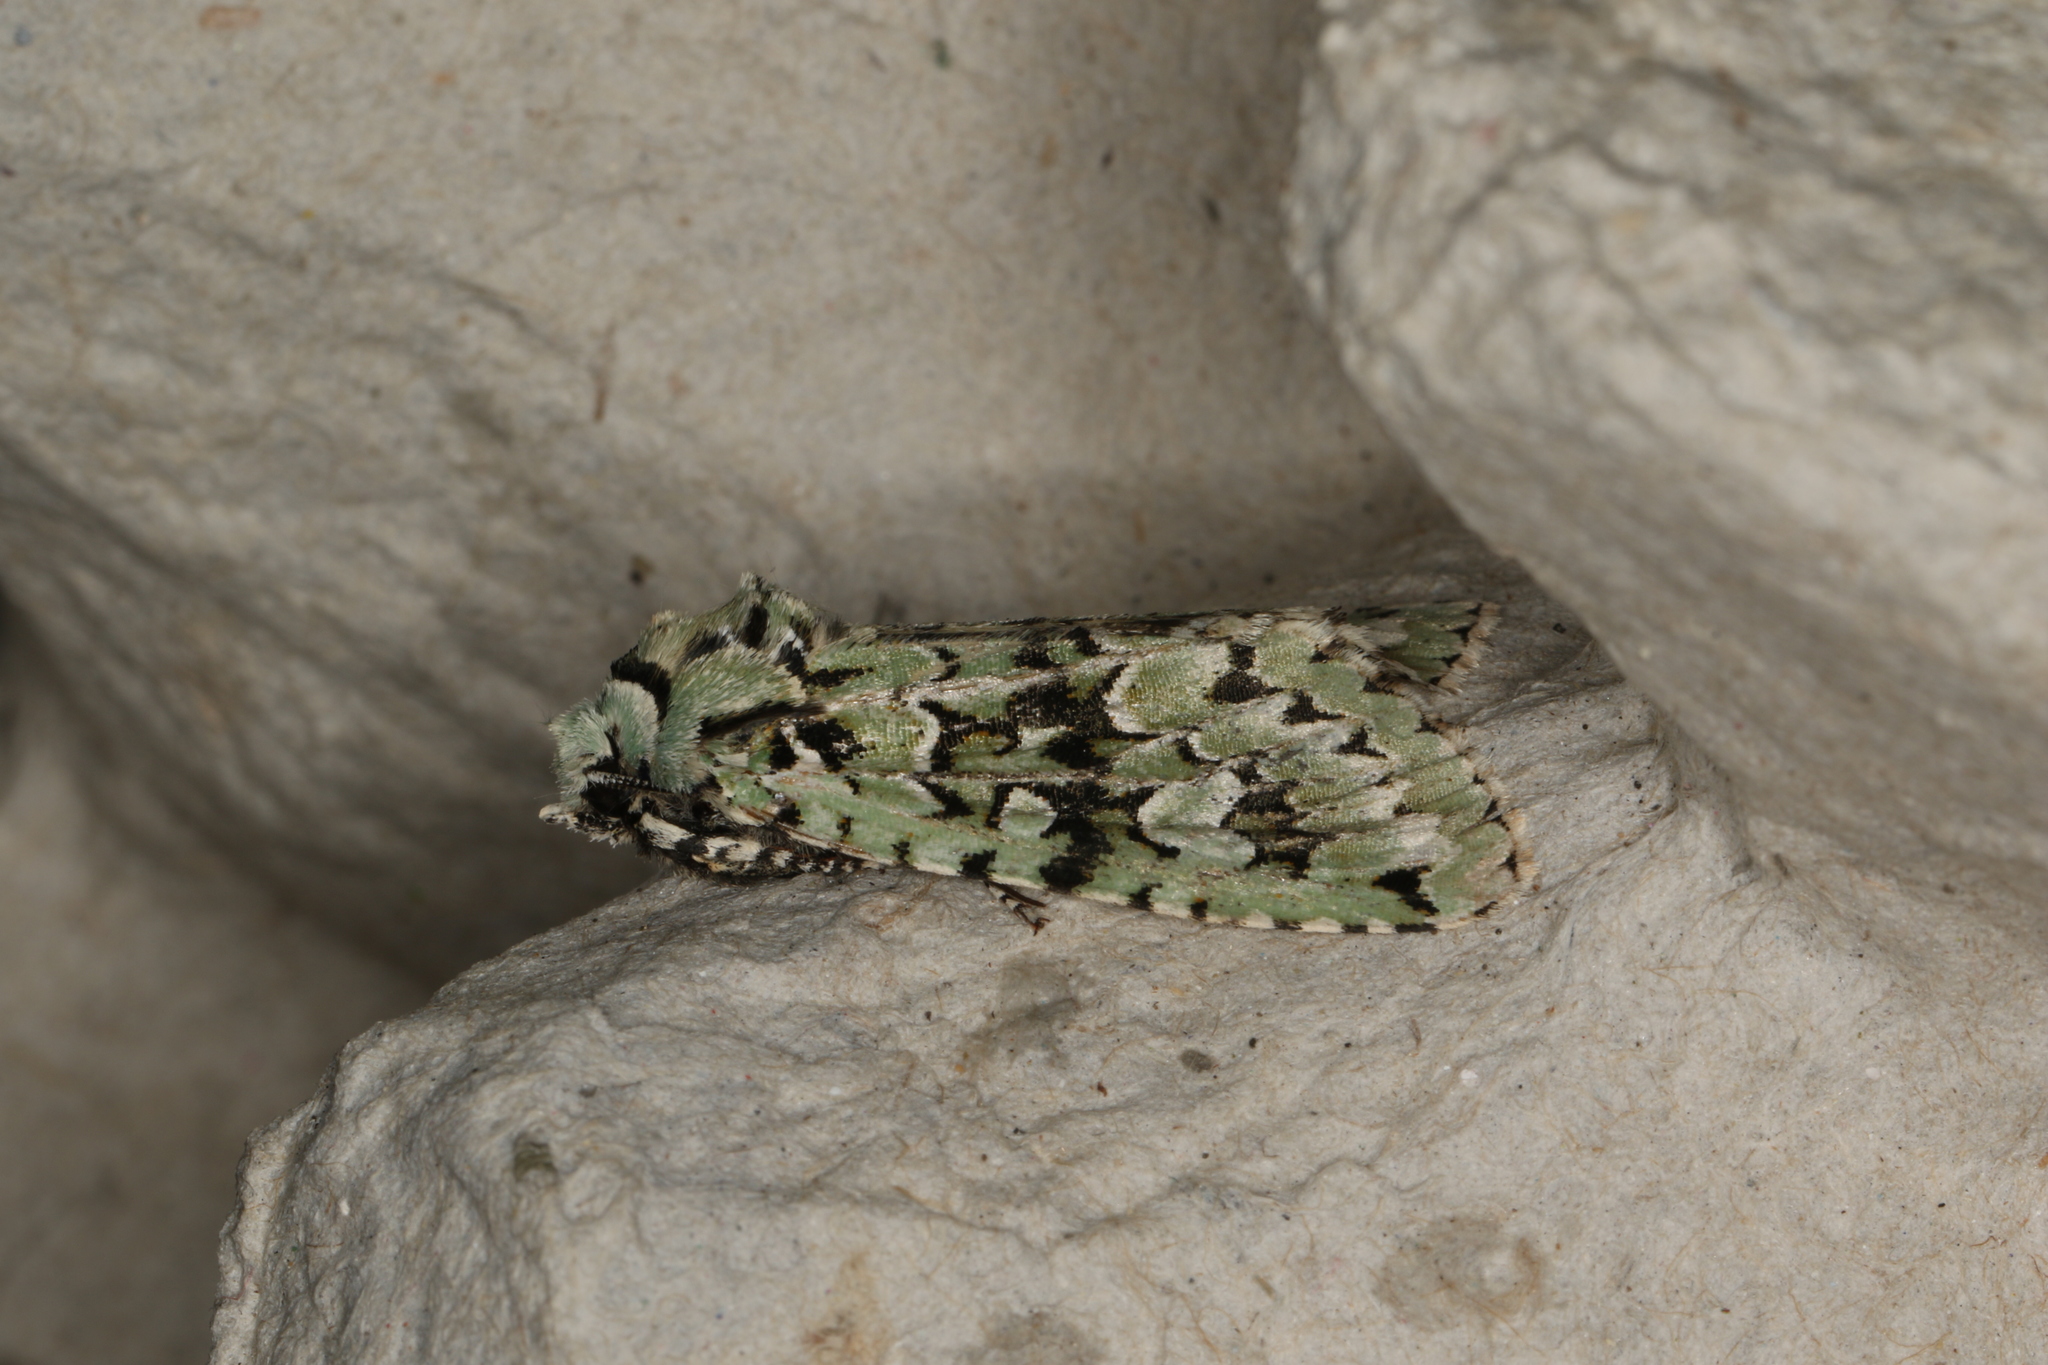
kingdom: Animalia
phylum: Arthropoda
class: Insecta
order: Lepidoptera
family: Noctuidae
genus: Griposia
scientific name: Griposia aprilina
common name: Merveille du jour
